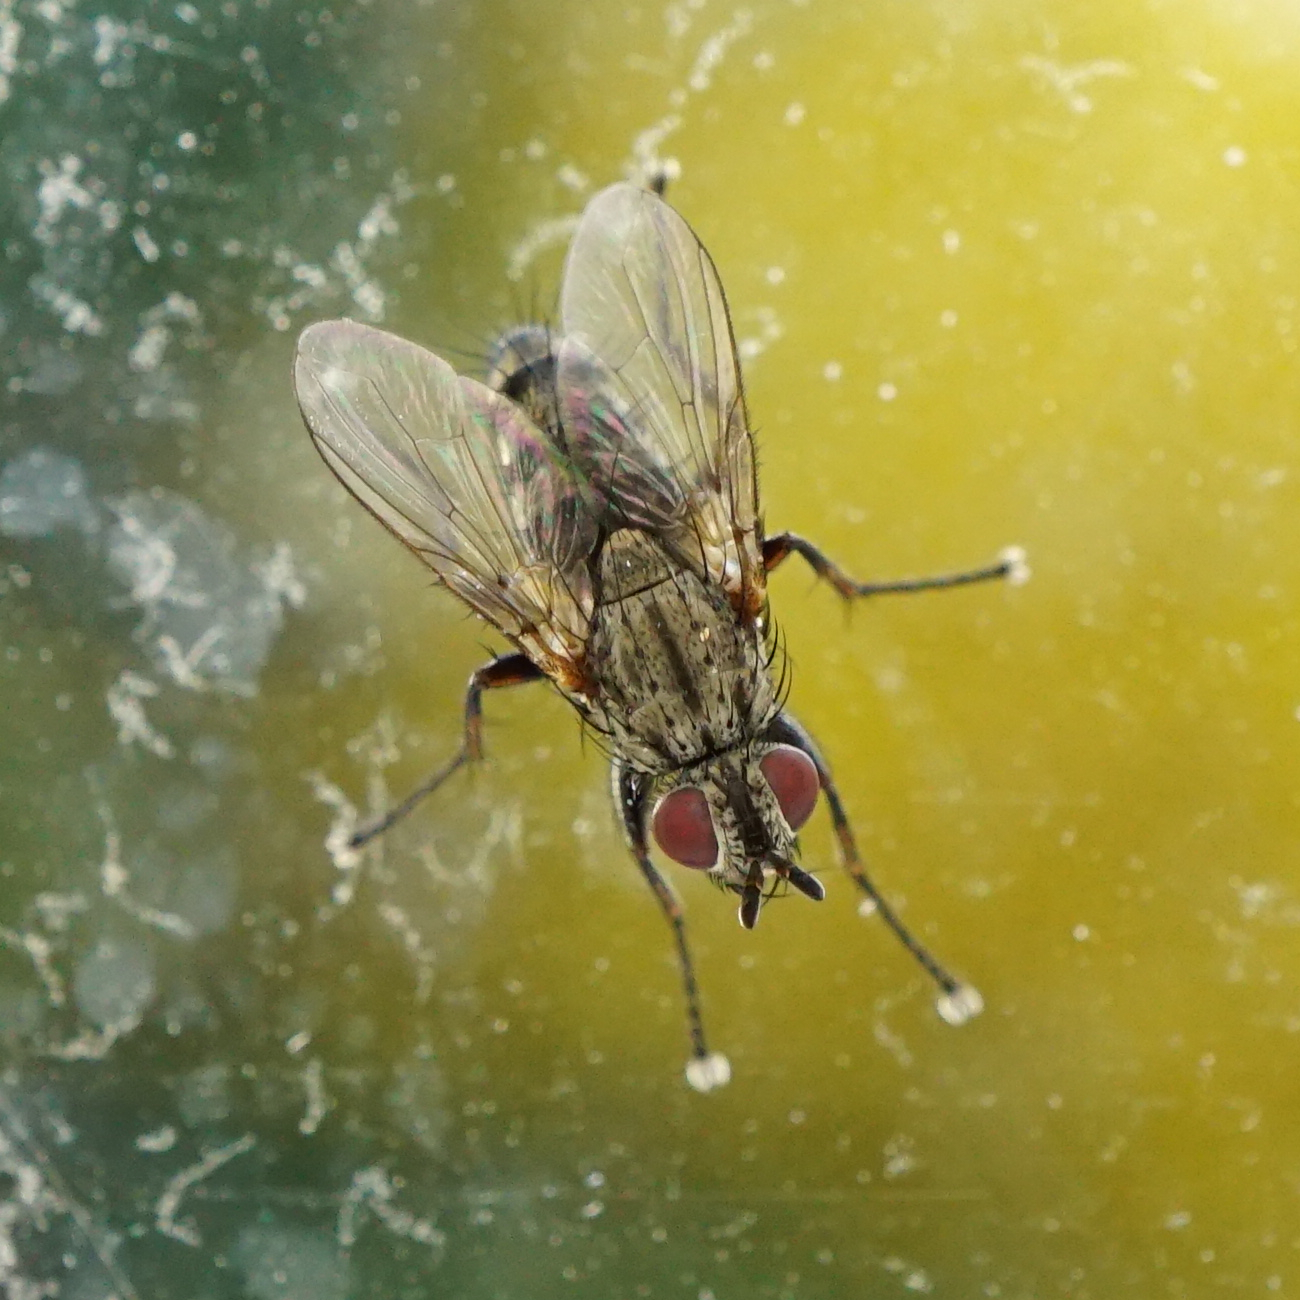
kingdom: Animalia
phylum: Arthropoda
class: Insecta
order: Diptera
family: Calliphoridae
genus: Tricogena
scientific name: Tricogena rubricosa
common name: Red-shinned woodlouse-fly
